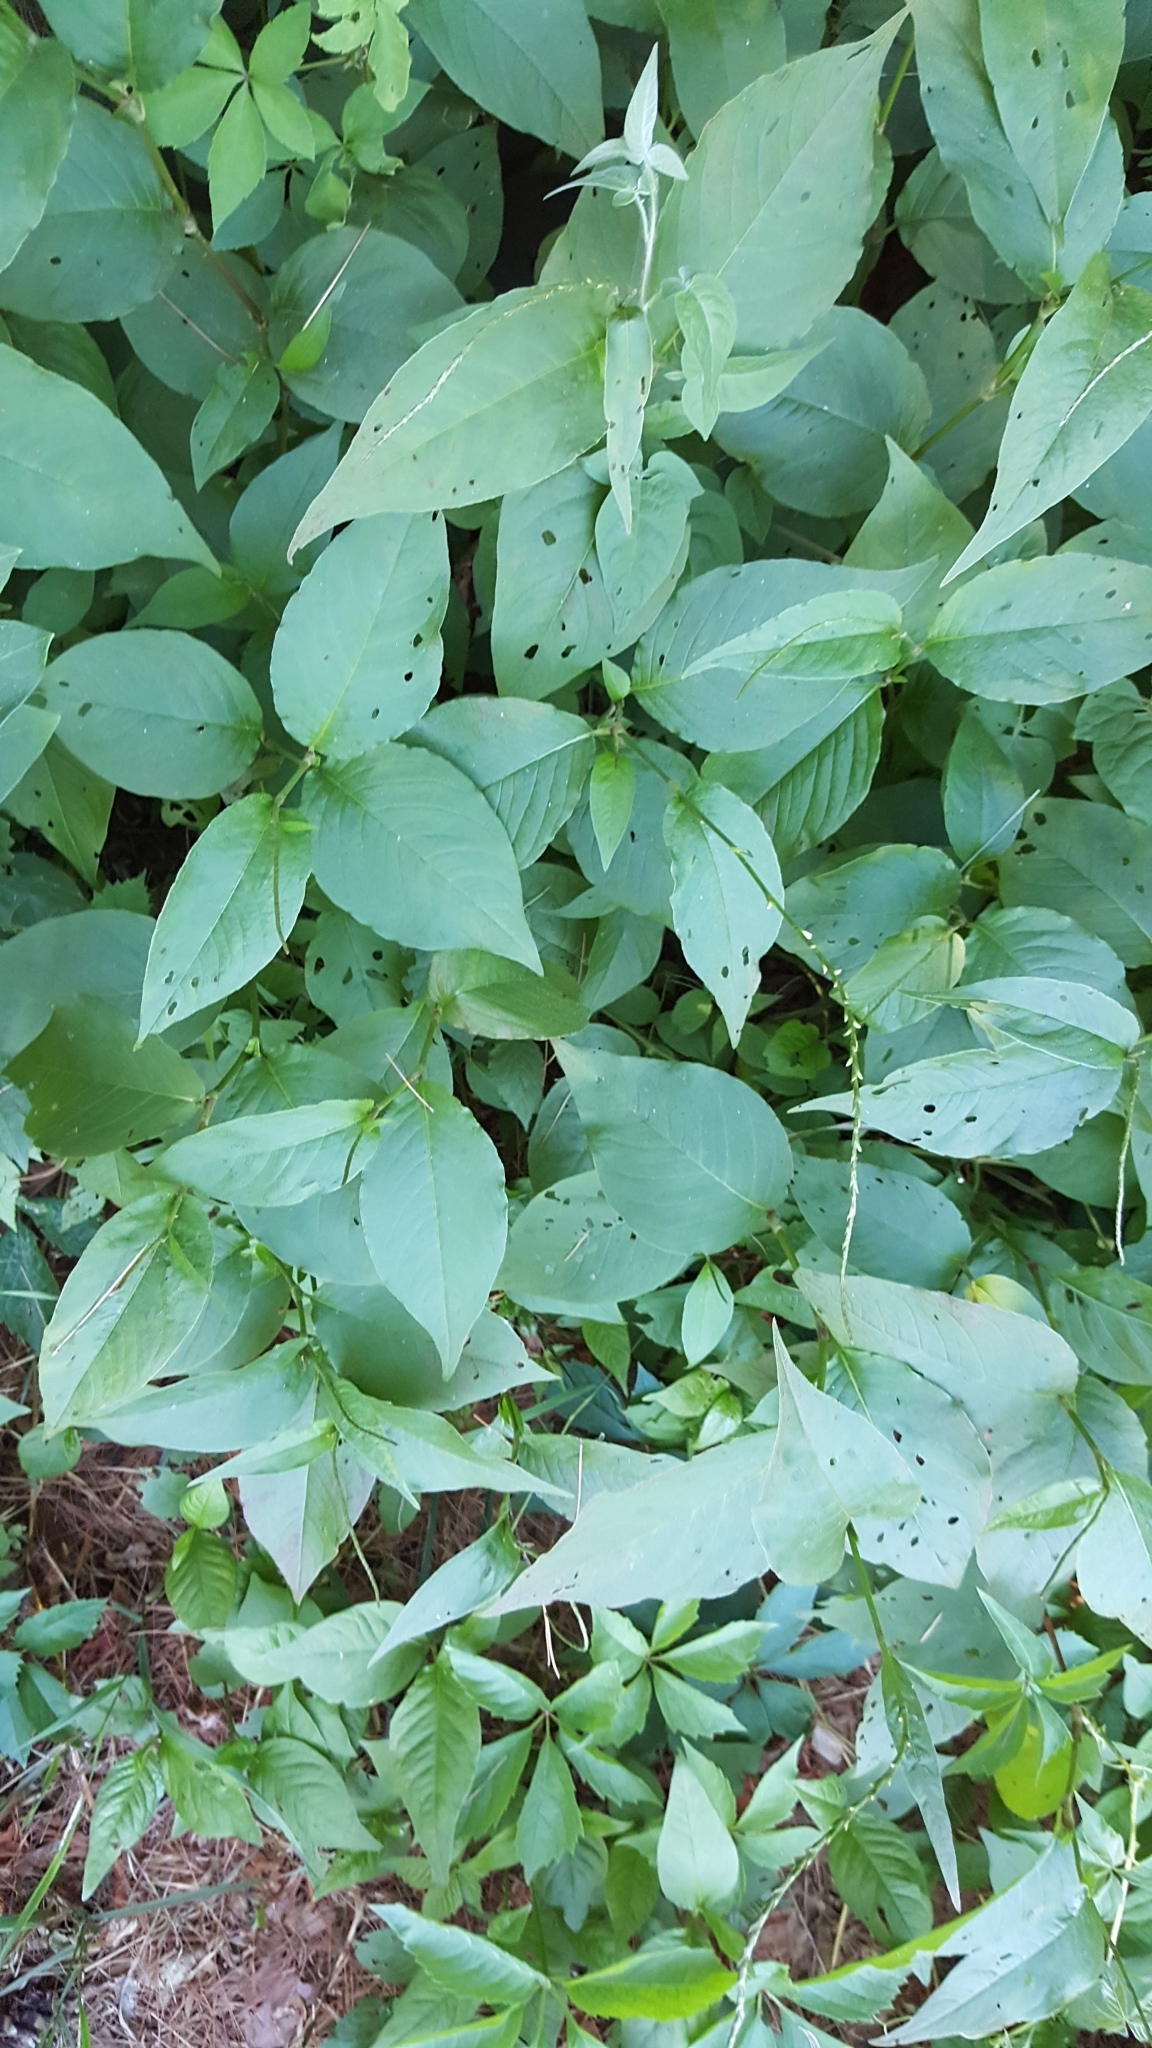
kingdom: Plantae
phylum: Tracheophyta
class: Magnoliopsida
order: Caryophyllales
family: Polygonaceae
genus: Persicaria
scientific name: Persicaria virginiana
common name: Jumpseed
